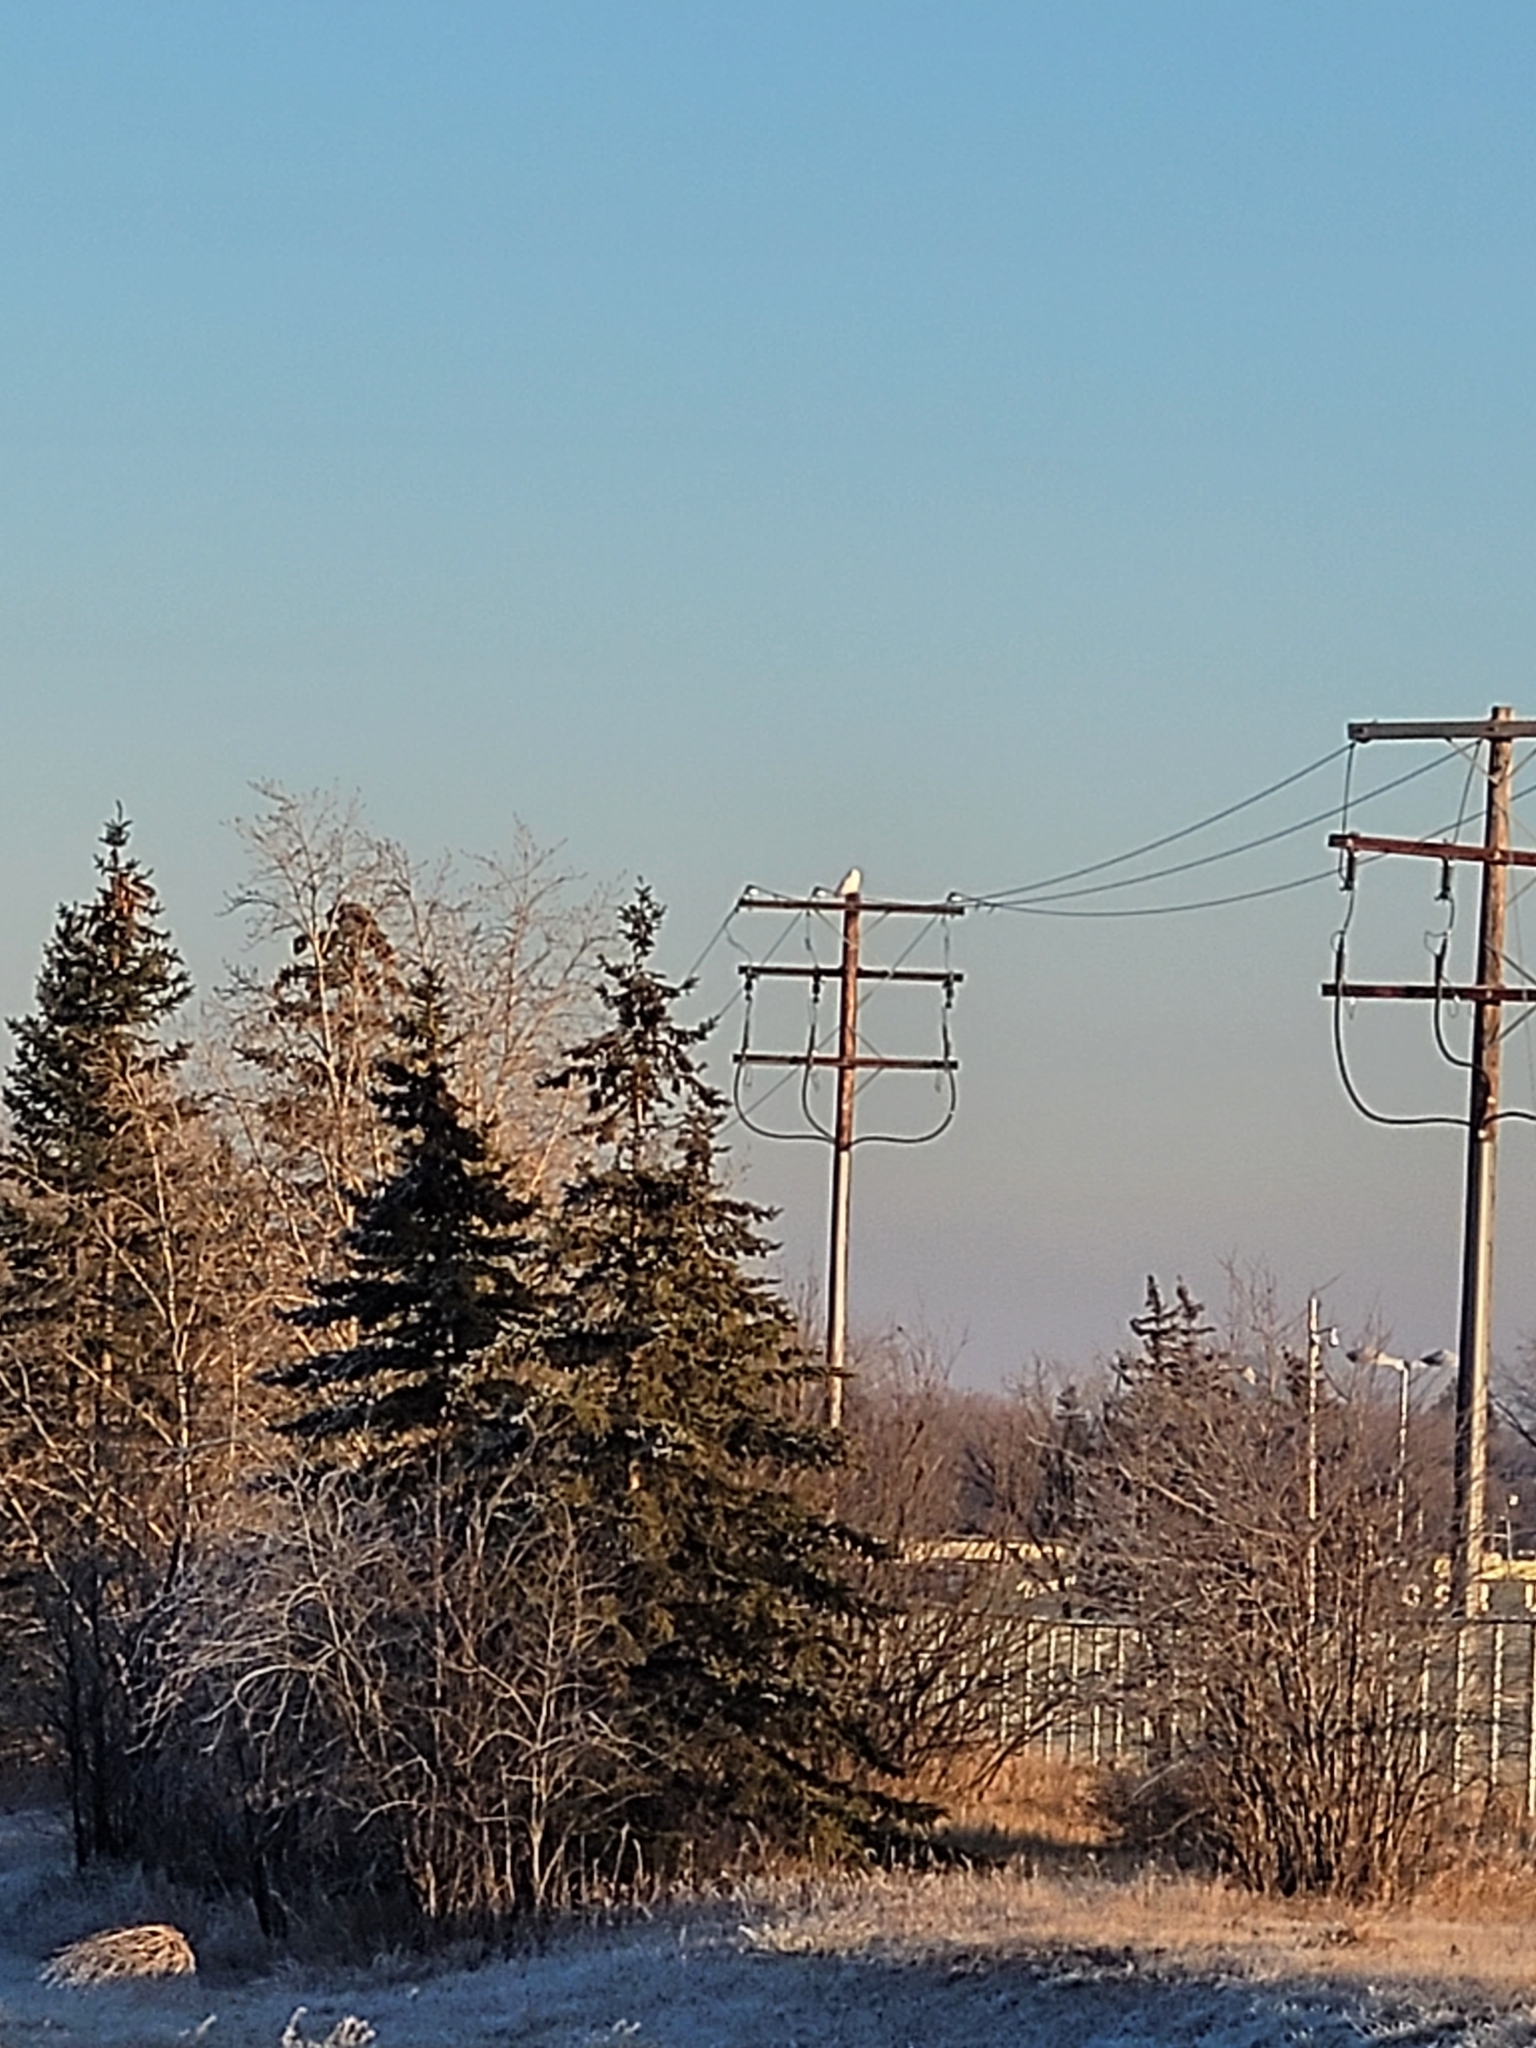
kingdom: Animalia
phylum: Chordata
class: Aves
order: Strigiformes
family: Strigidae
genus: Bubo
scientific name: Bubo scandiacus
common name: Snowy owl
